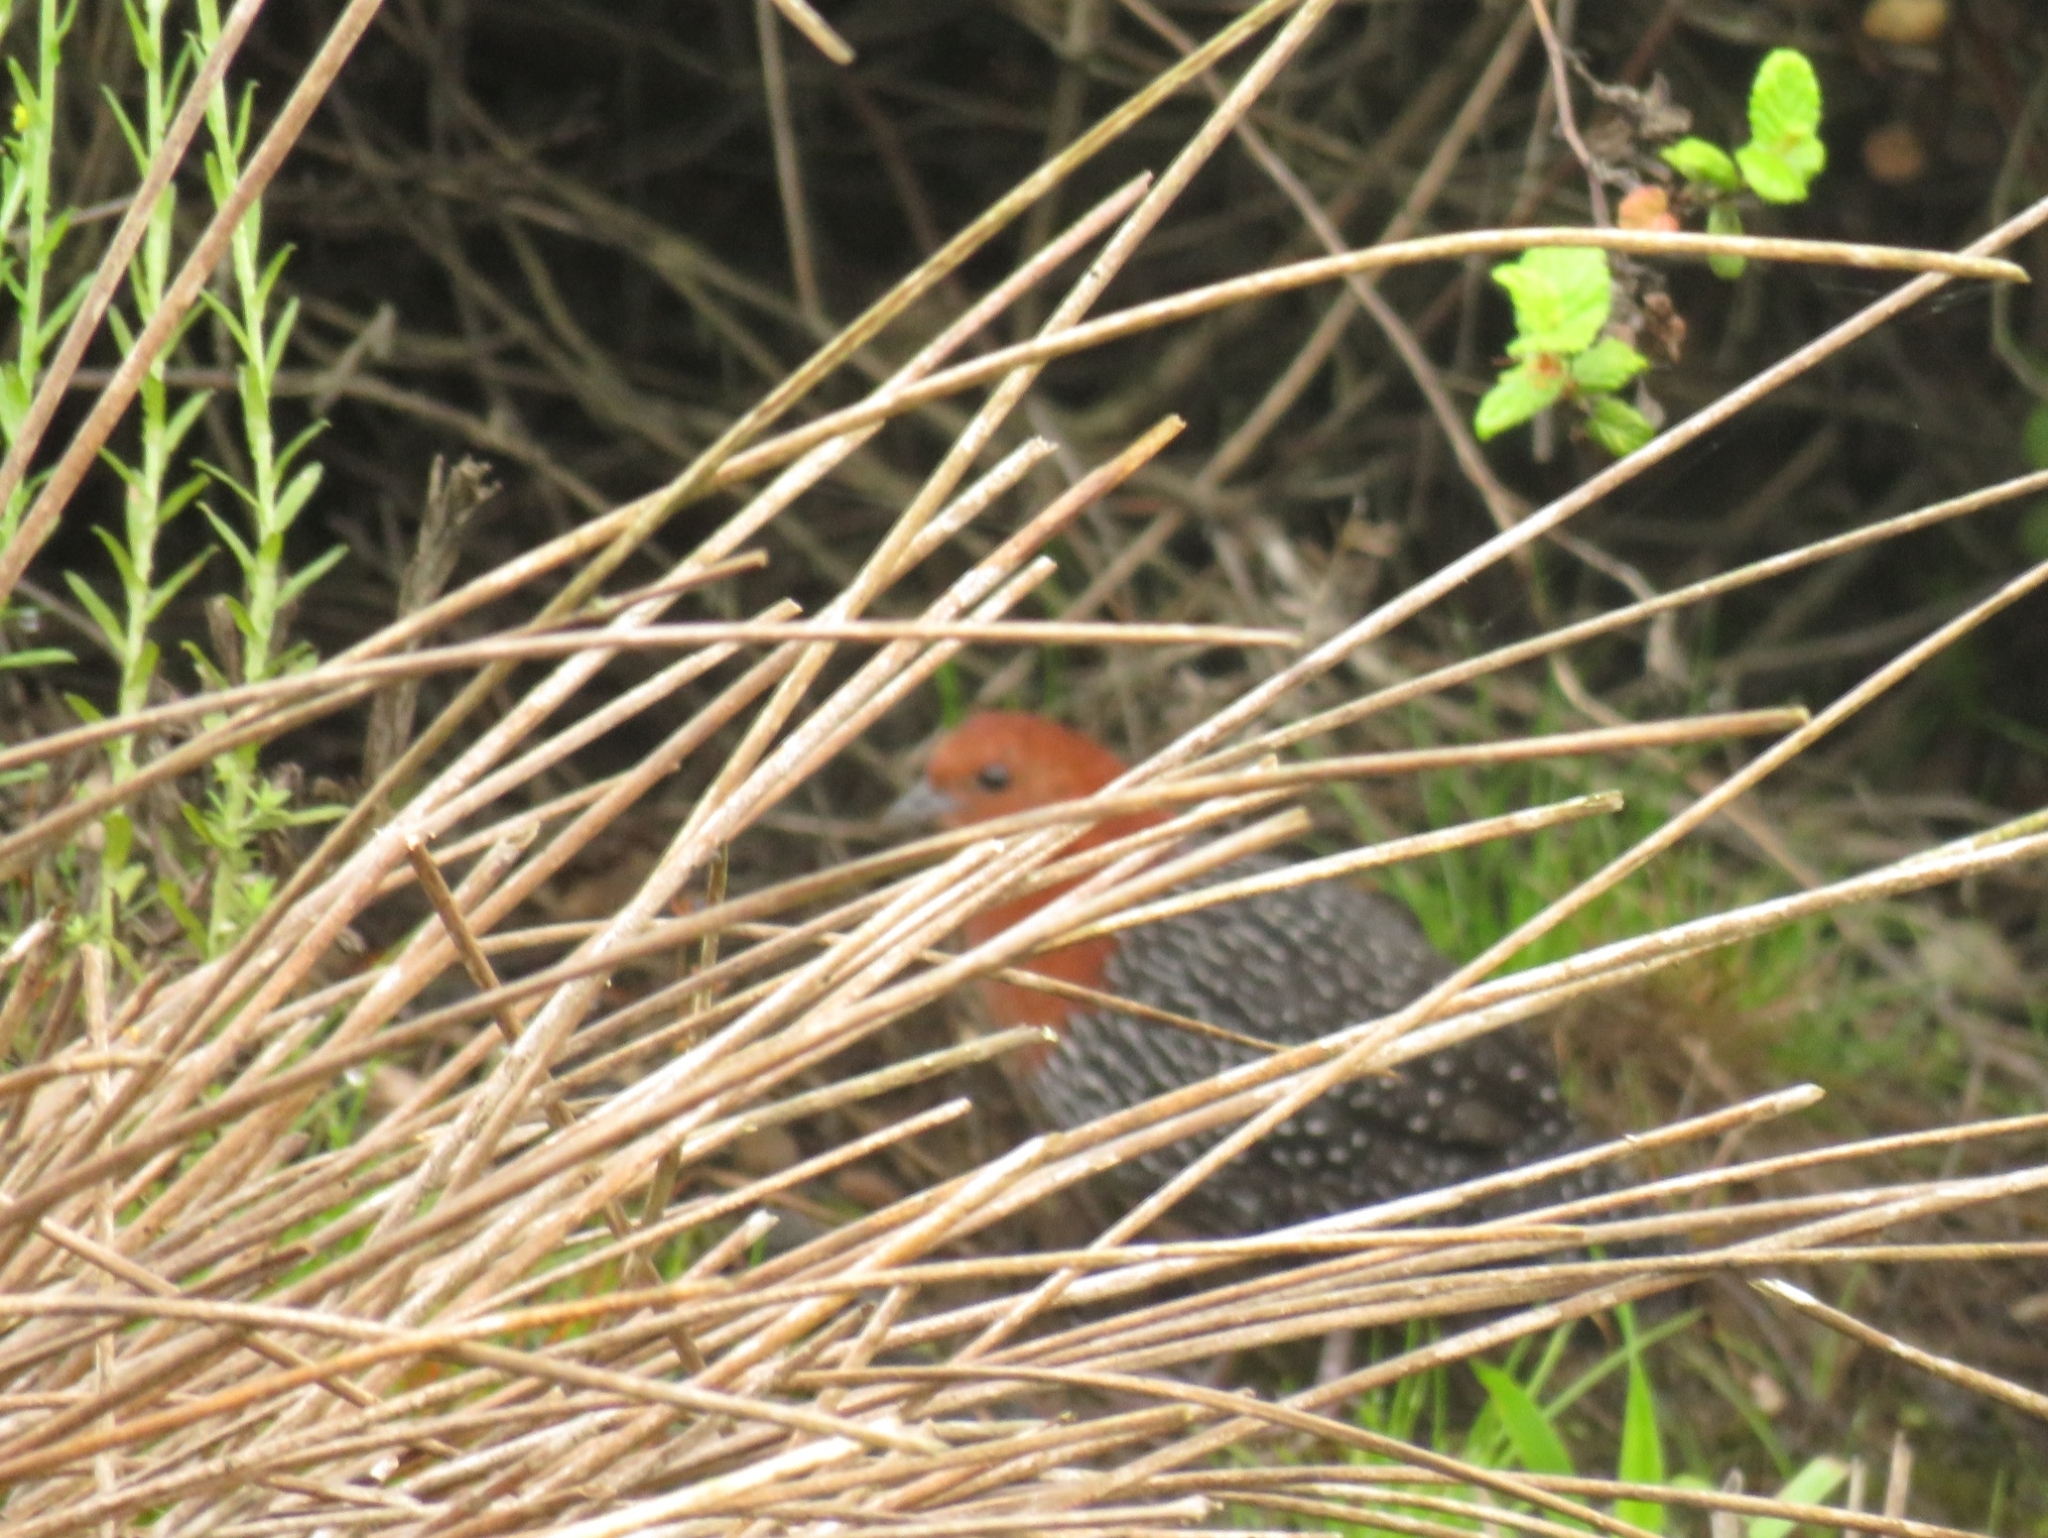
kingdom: Animalia
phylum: Chordata
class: Aves
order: Gruiformes
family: Rallidae
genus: Sarothrura
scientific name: Sarothrura rufa
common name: Red-chested flufftail
